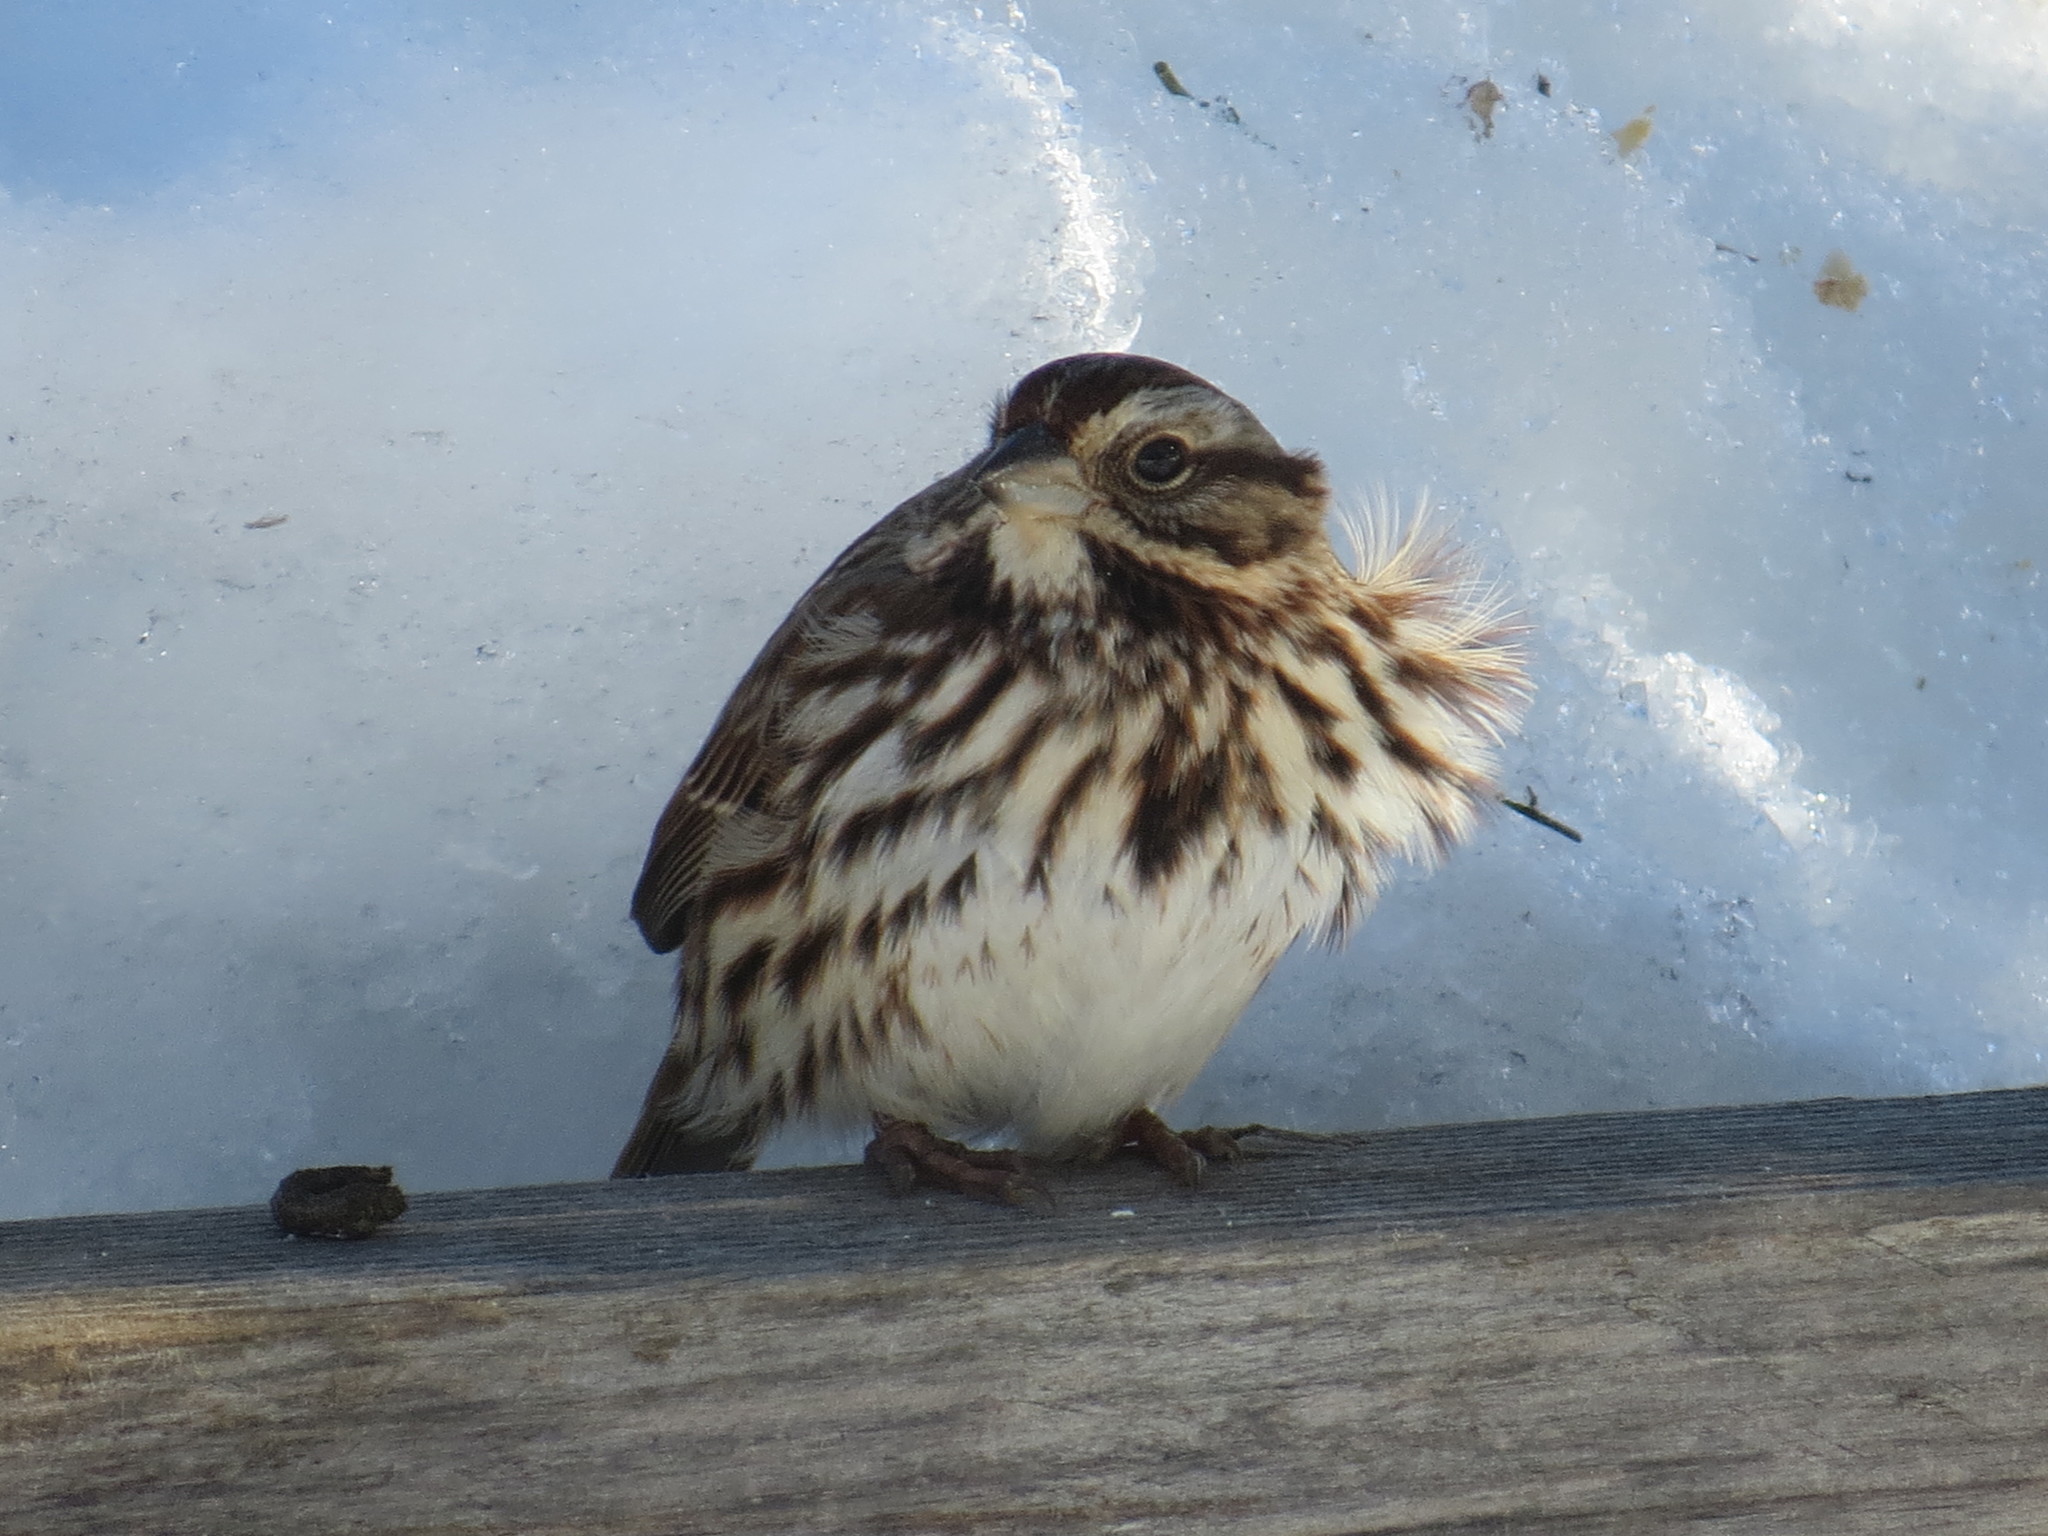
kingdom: Animalia
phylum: Chordata
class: Aves
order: Passeriformes
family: Passerellidae
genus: Melospiza
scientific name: Melospiza melodia
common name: Song sparrow
